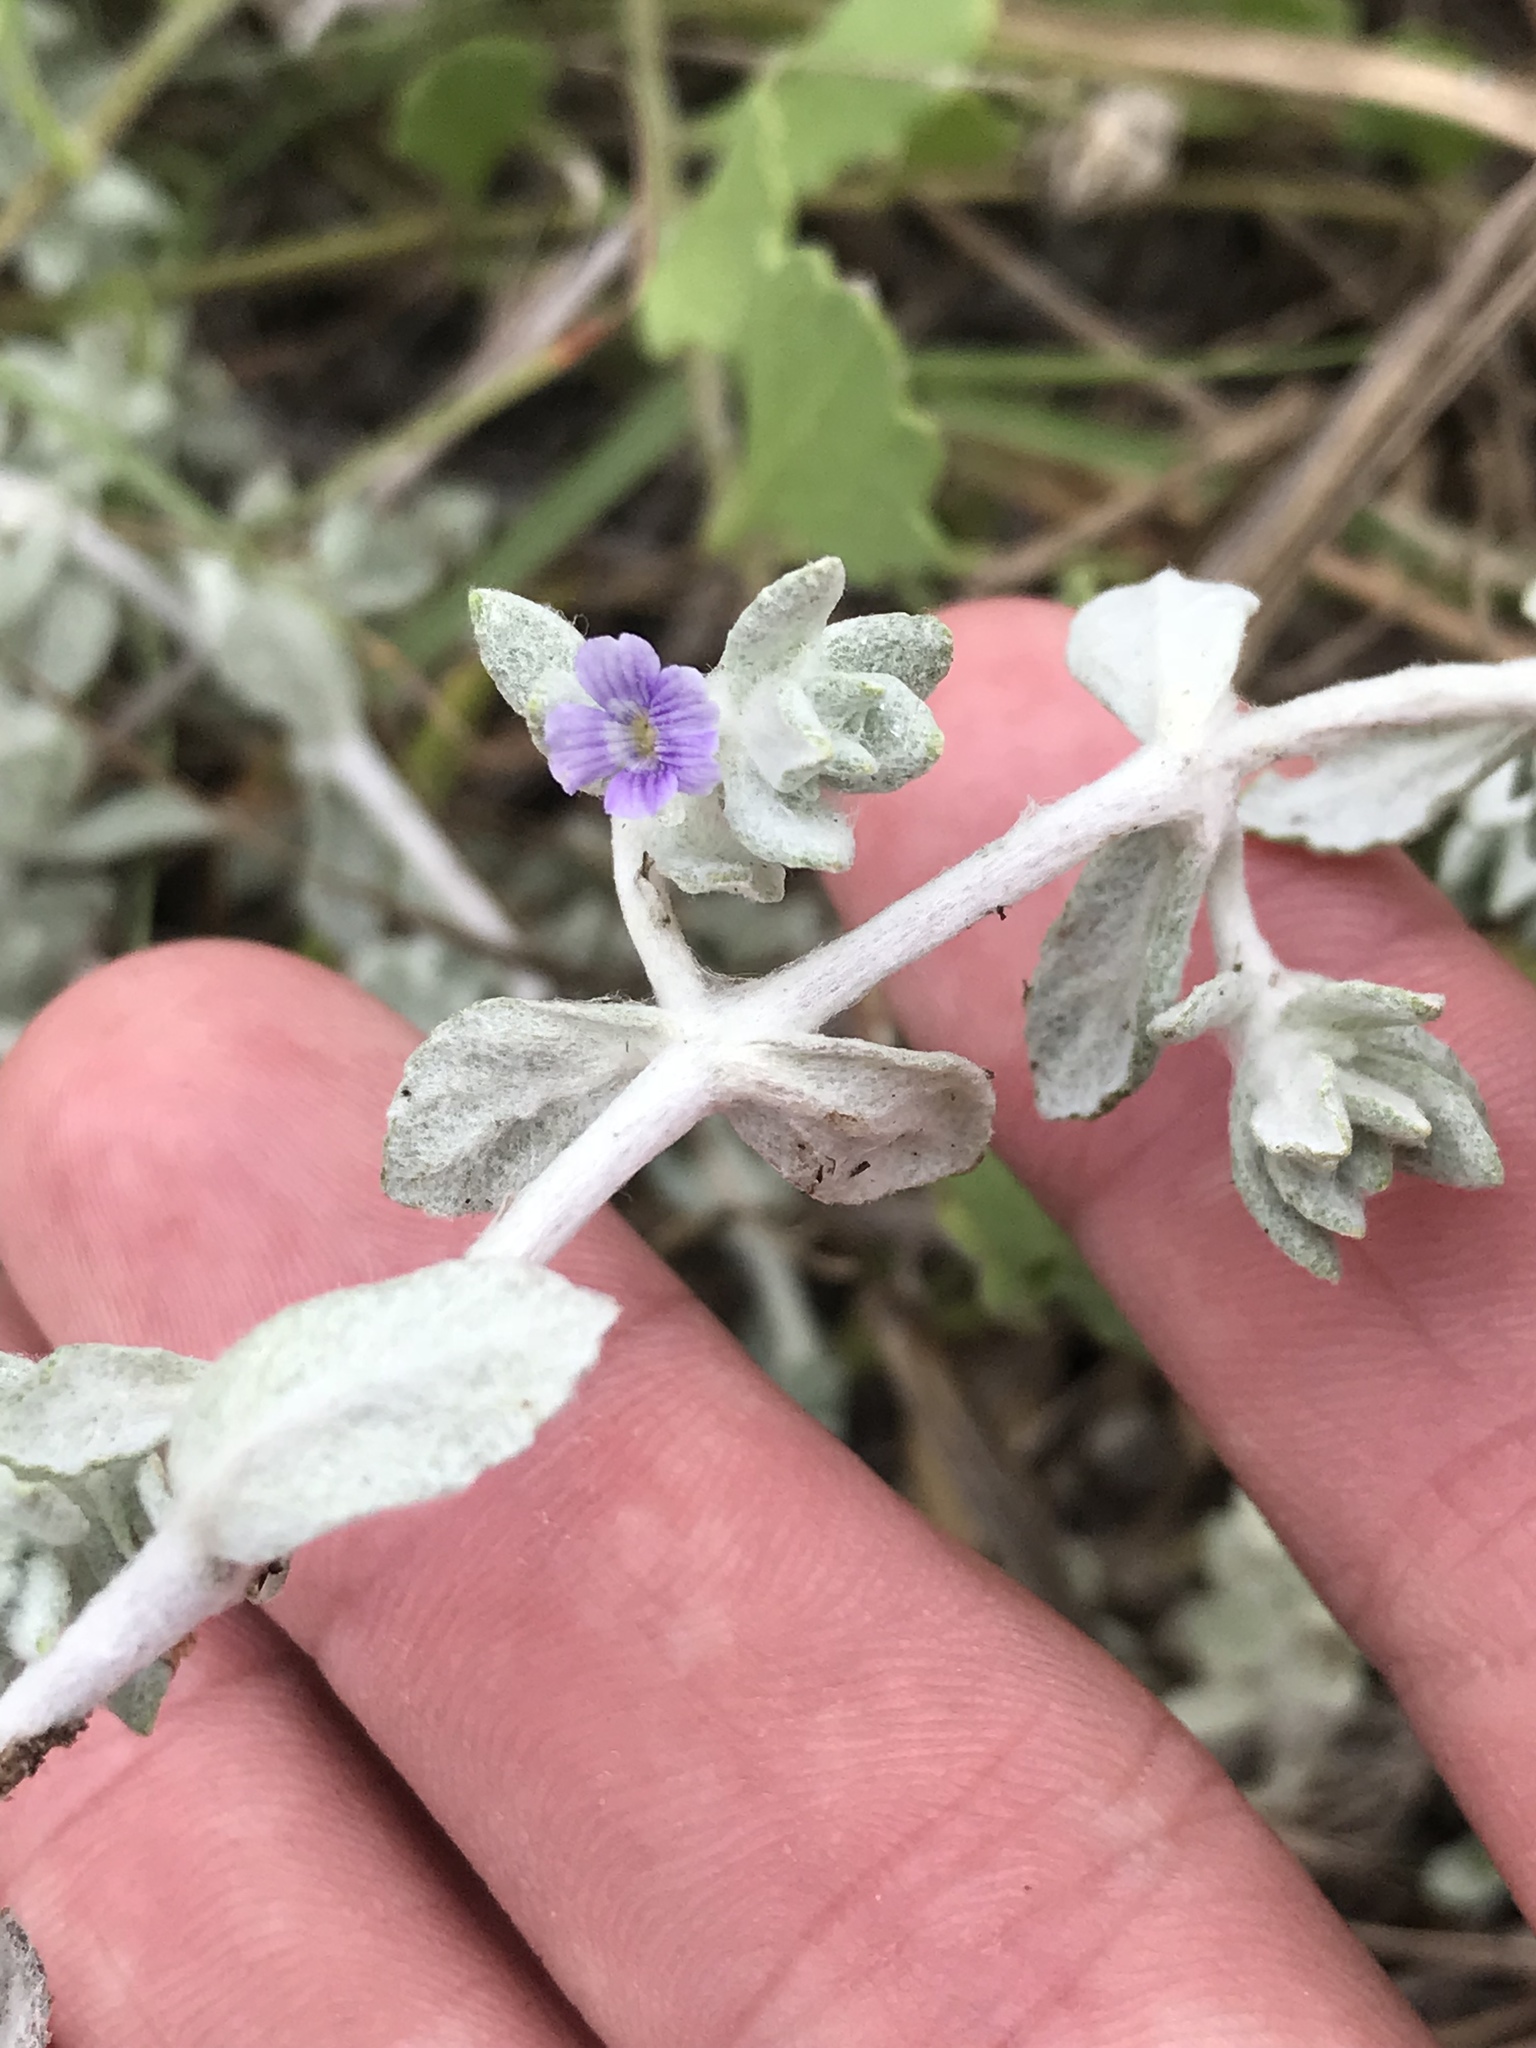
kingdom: Plantae
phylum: Tracheophyta
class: Magnoliopsida
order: Lamiales
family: Plantaginaceae
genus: Stemodia
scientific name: Stemodia lanata
